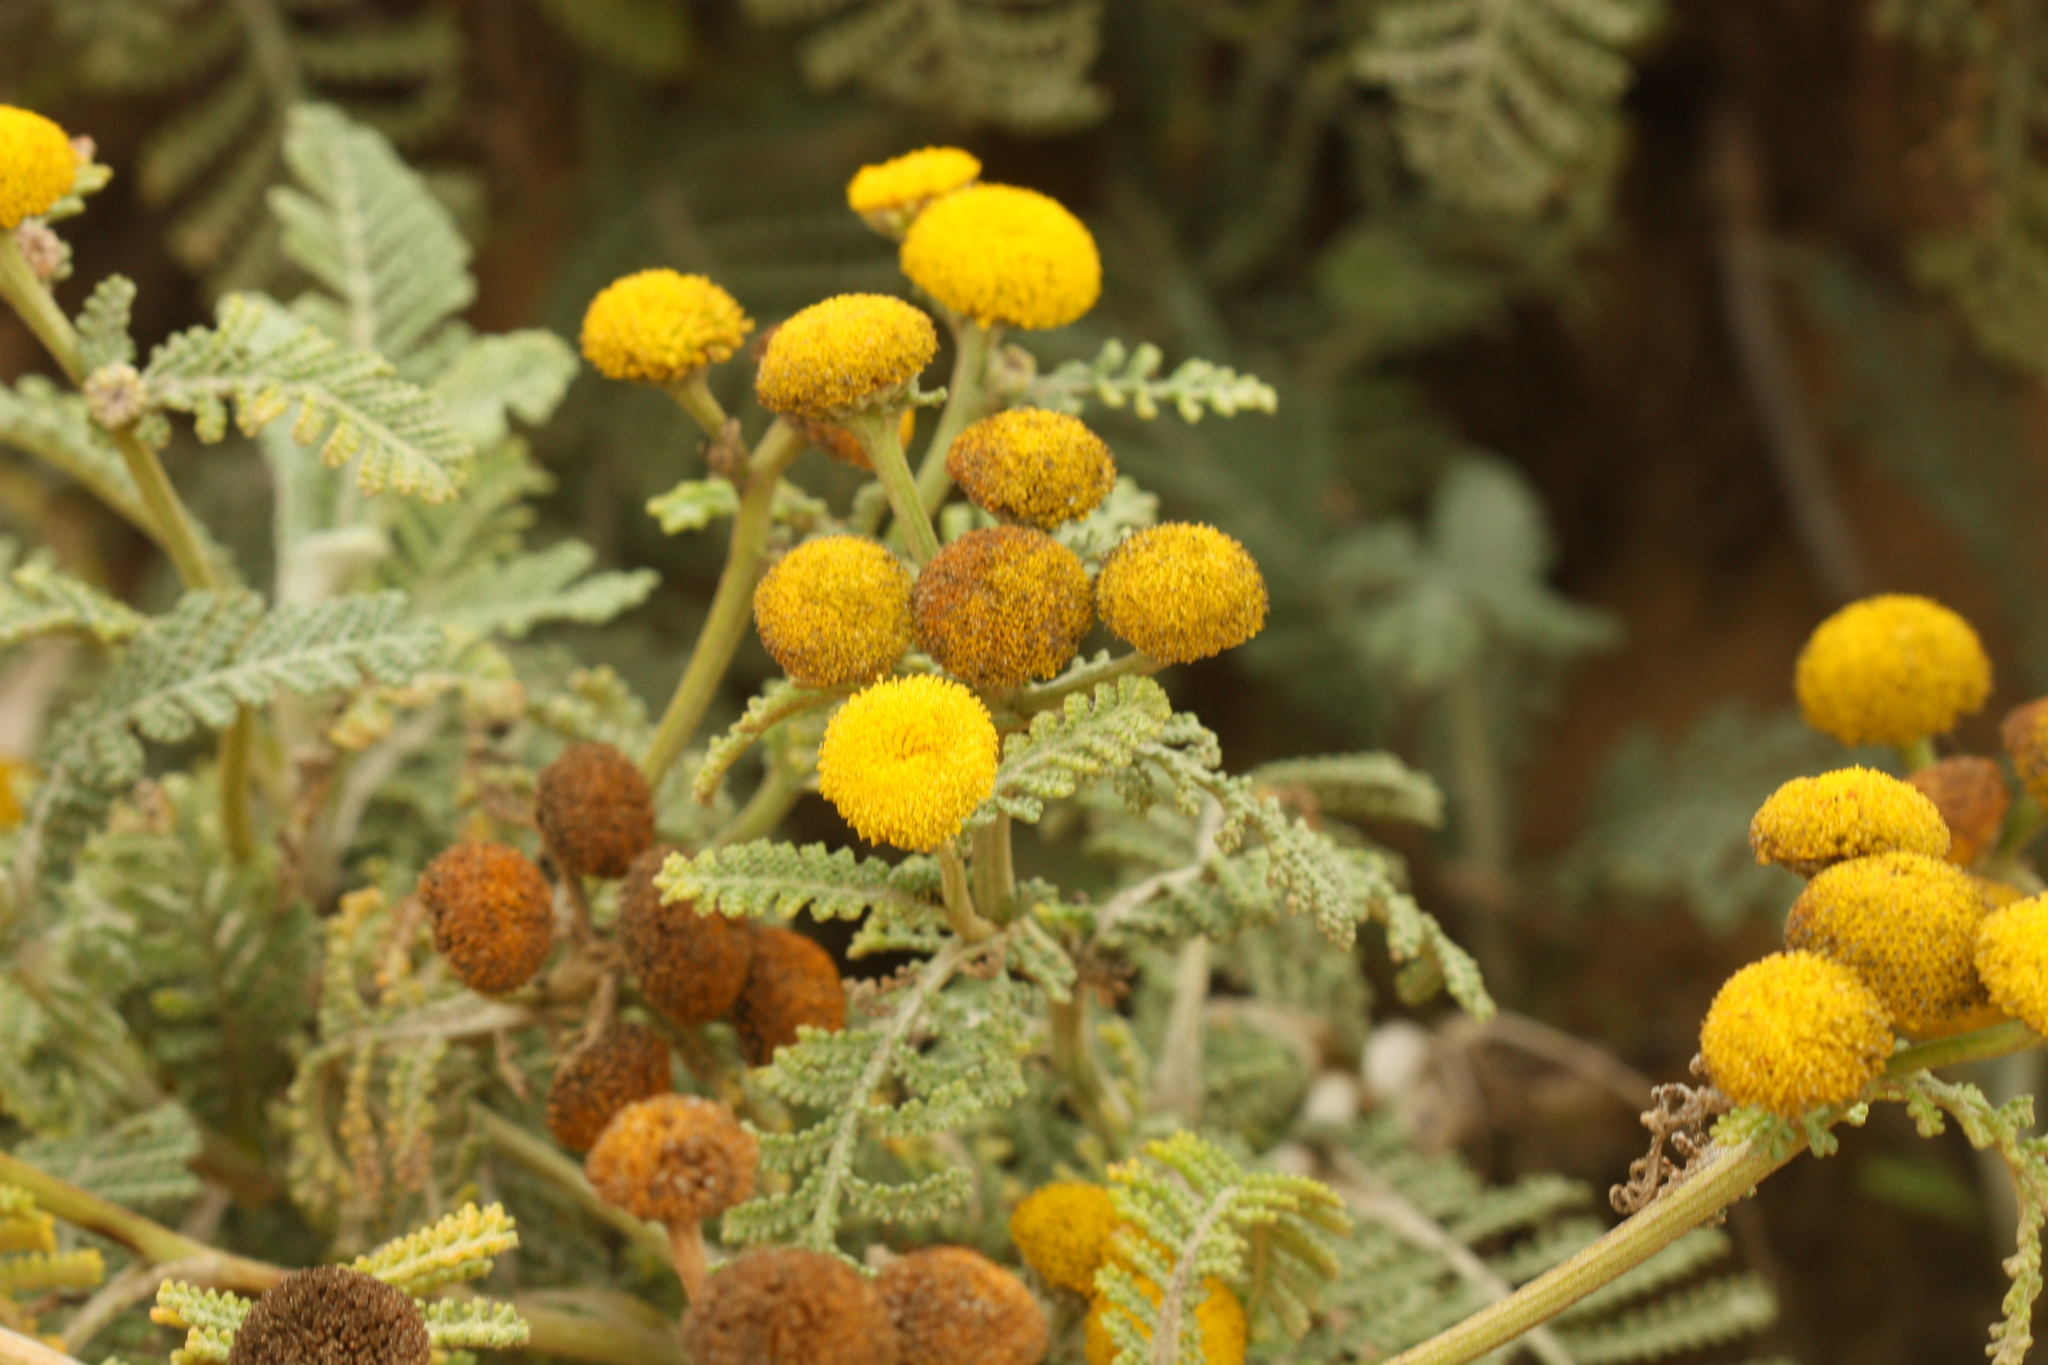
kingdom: Plantae
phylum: Tracheophyta
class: Magnoliopsida
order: Asterales
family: Asteraceae
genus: Tanacetum
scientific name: Tanacetum bipinnatum
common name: Dwarf tansy
